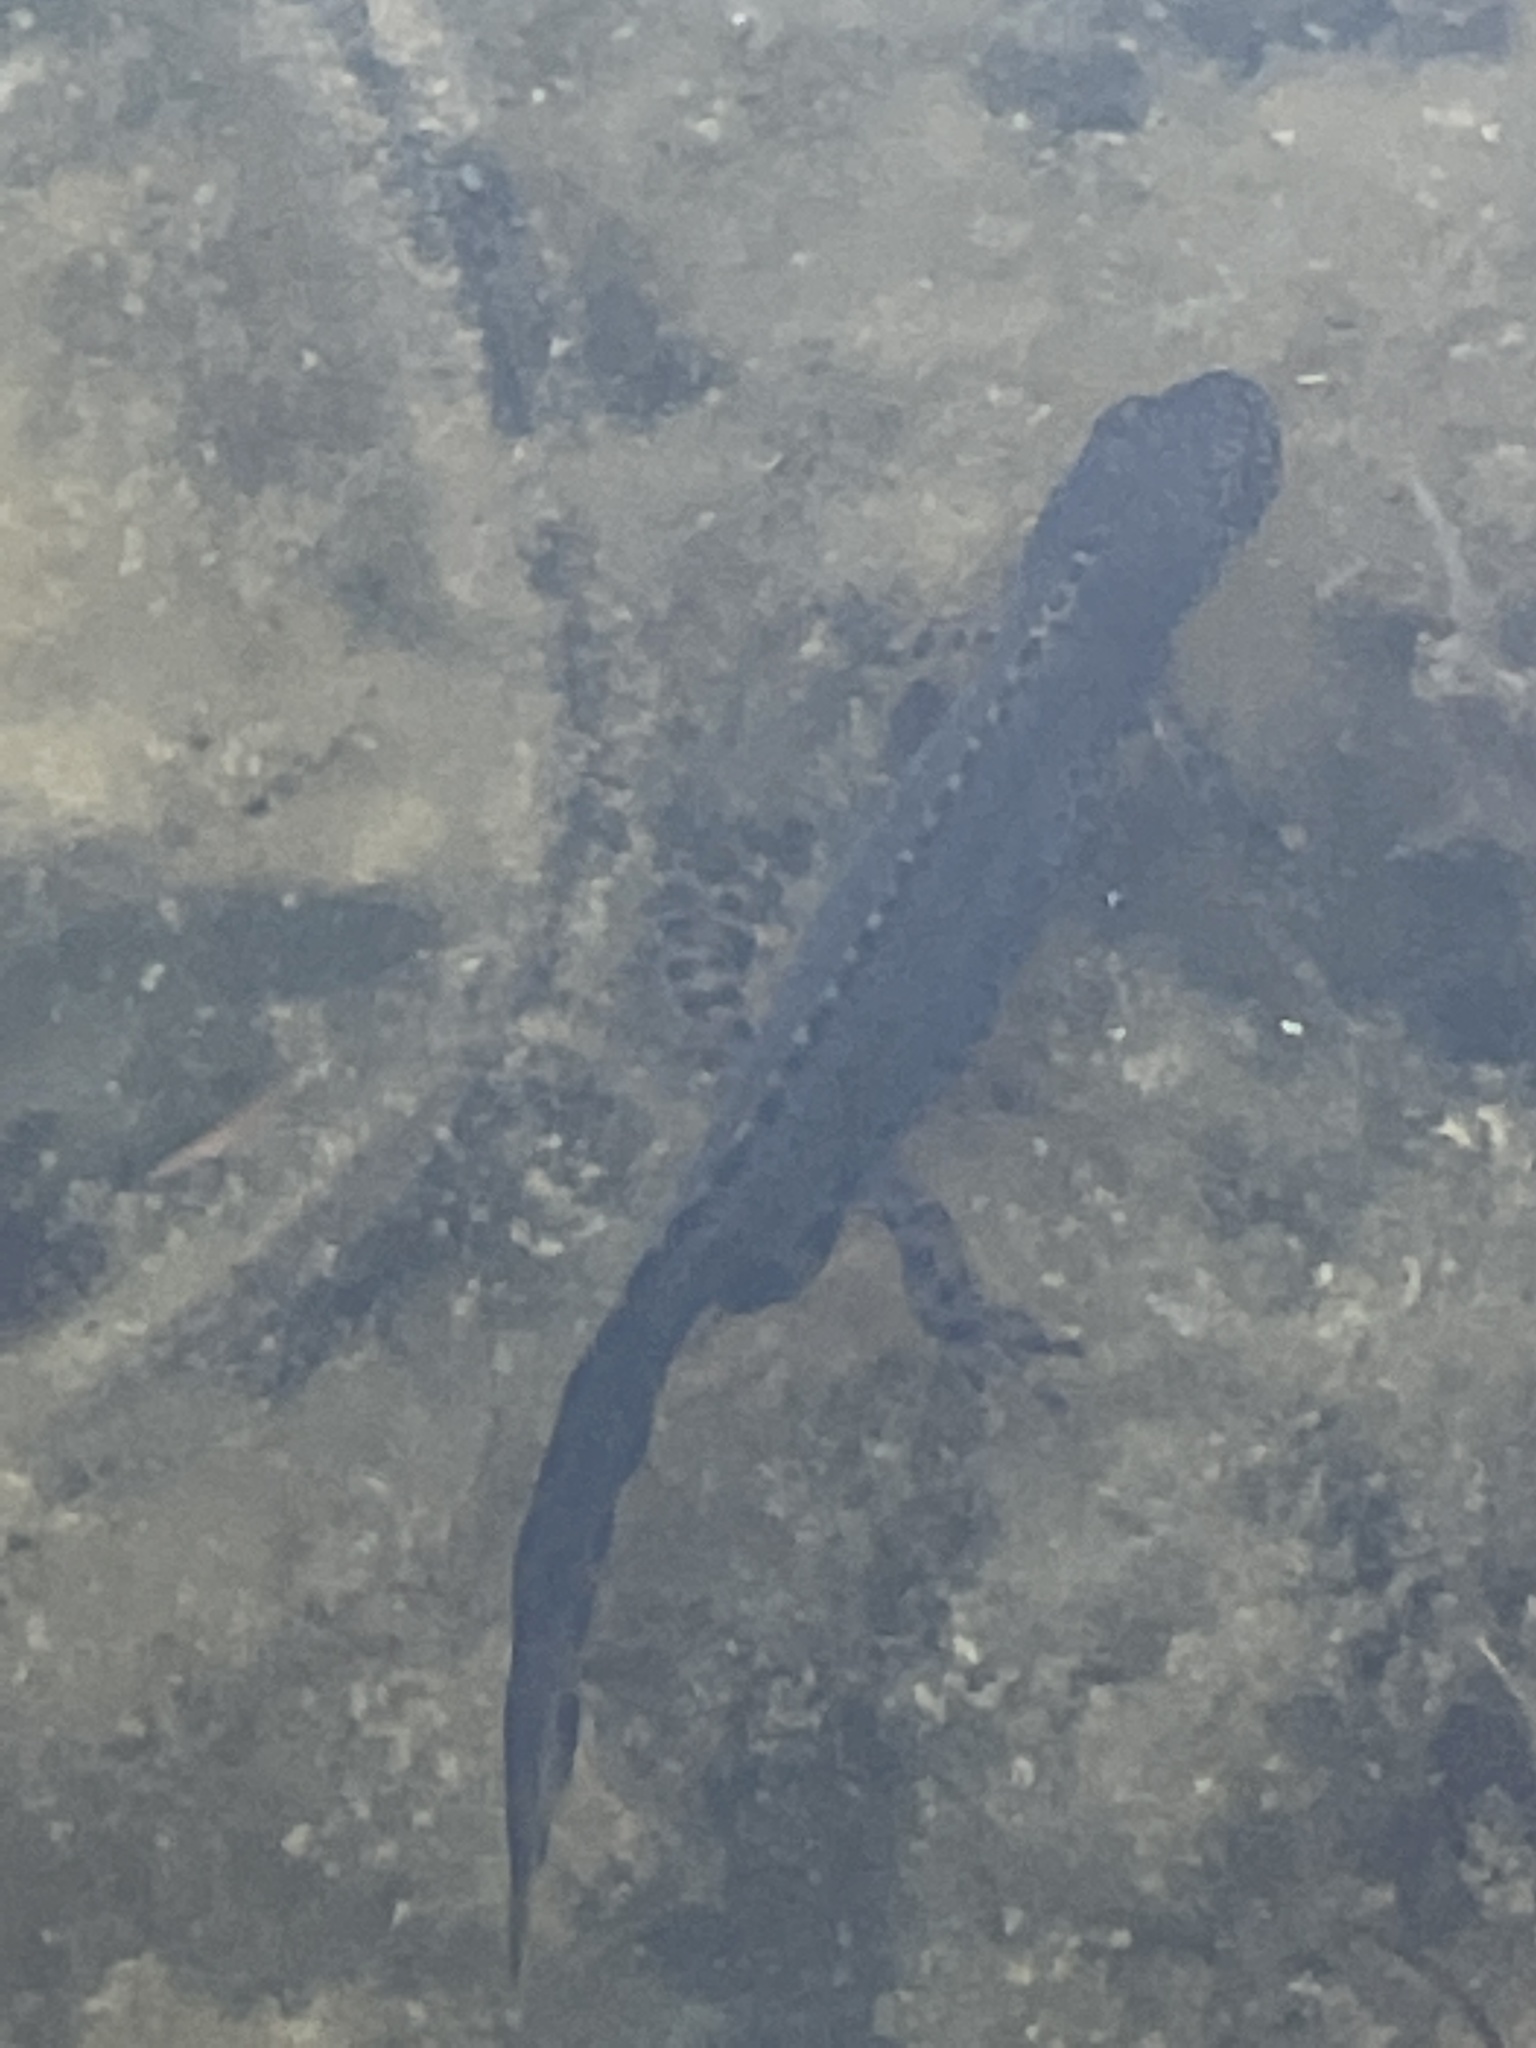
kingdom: Animalia
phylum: Chordata
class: Amphibia
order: Caudata
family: Salamandridae
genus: Ichthyosaura
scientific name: Ichthyosaura alpestris
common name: Alpine newt
